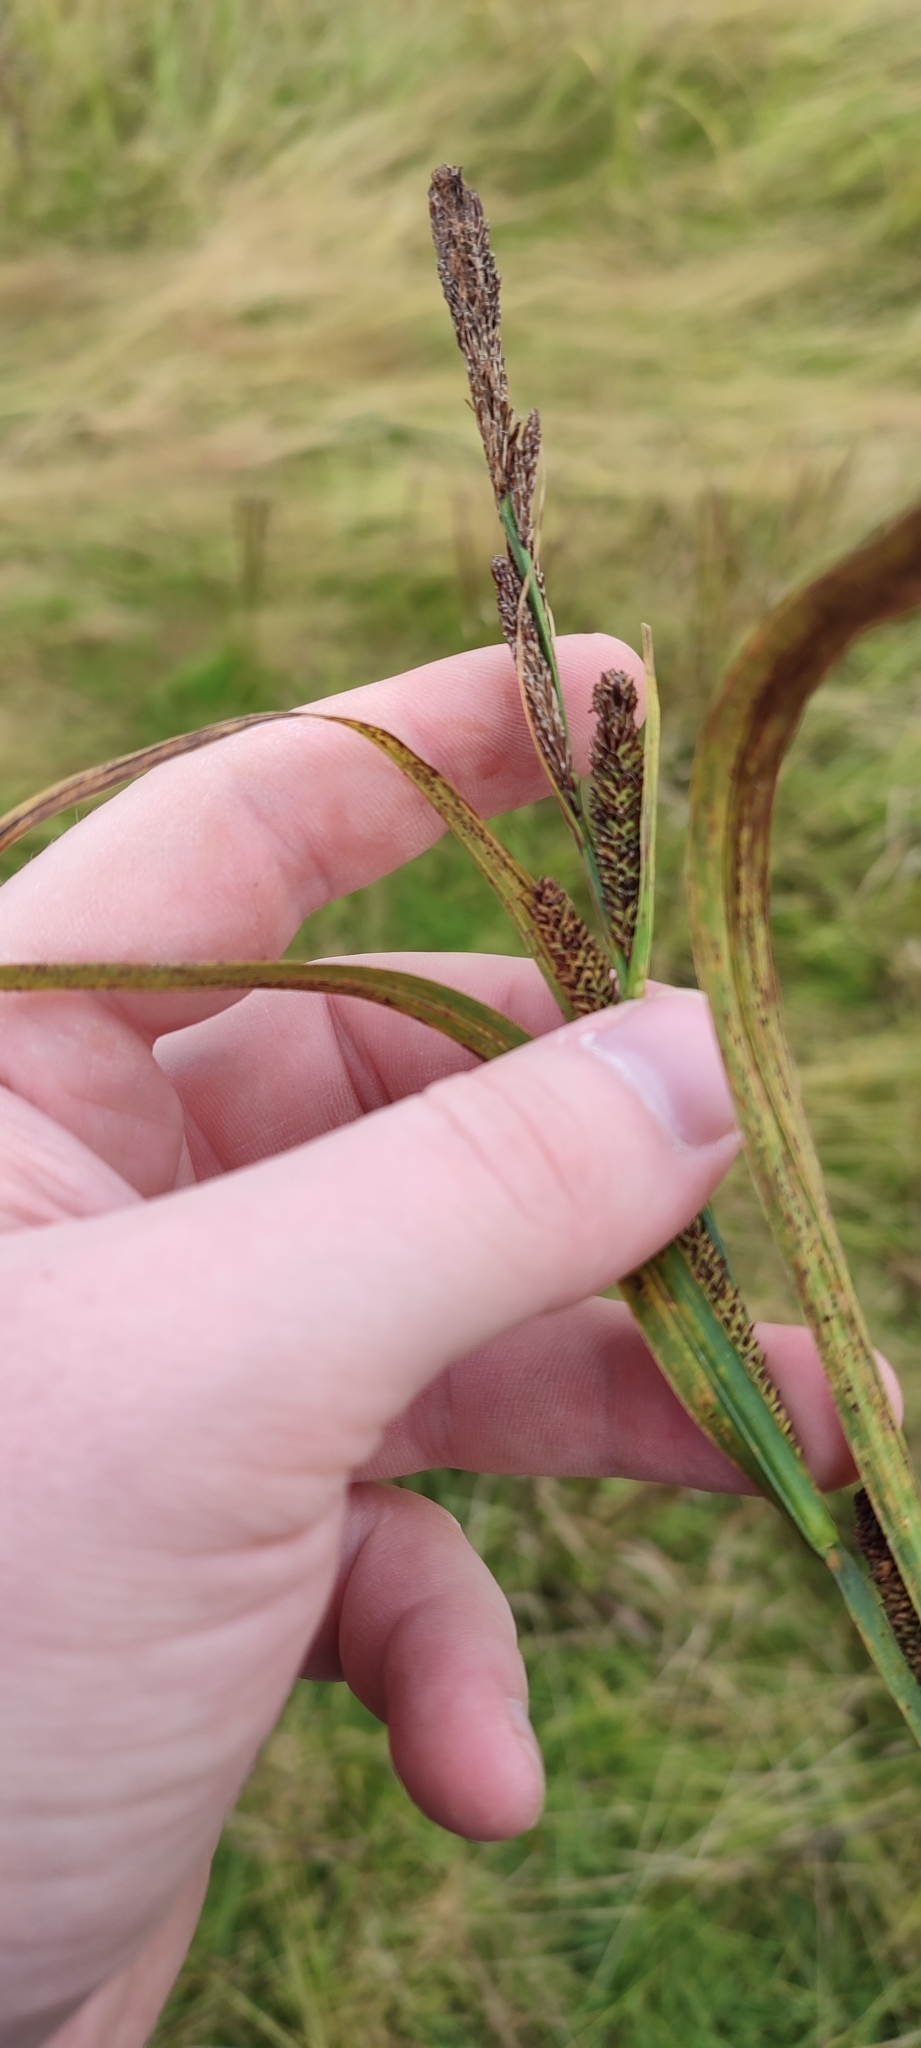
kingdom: Plantae
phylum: Tracheophyta
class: Liliopsida
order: Poales
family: Cyperaceae
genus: Carex
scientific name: Carex acuta
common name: Slender tufted-sedge
